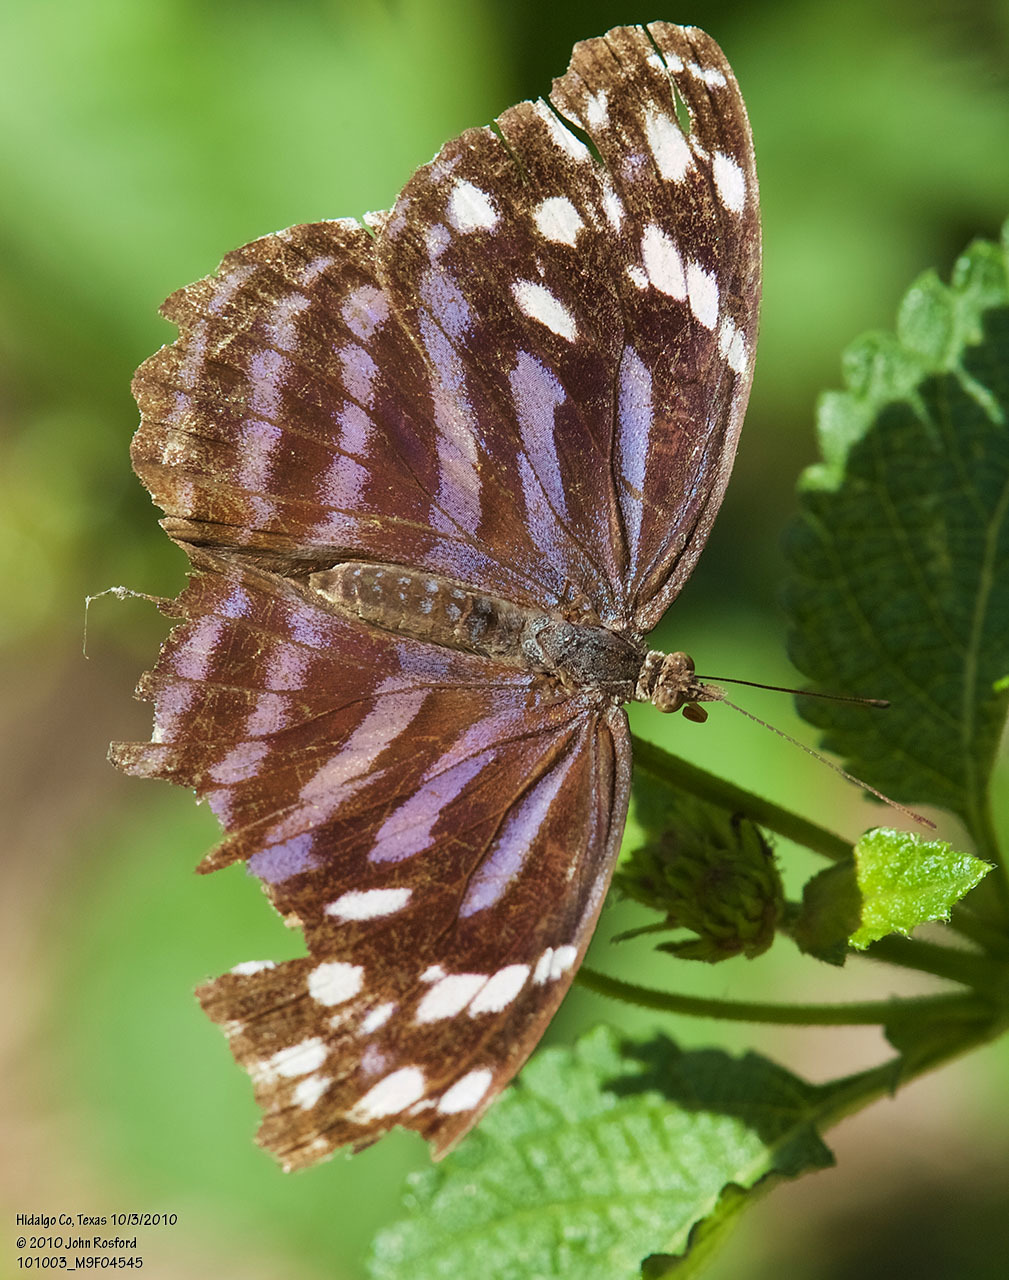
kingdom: Animalia
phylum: Arthropoda
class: Insecta
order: Lepidoptera
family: Nymphalidae
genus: Myscelia
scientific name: Myscelia ethusa
